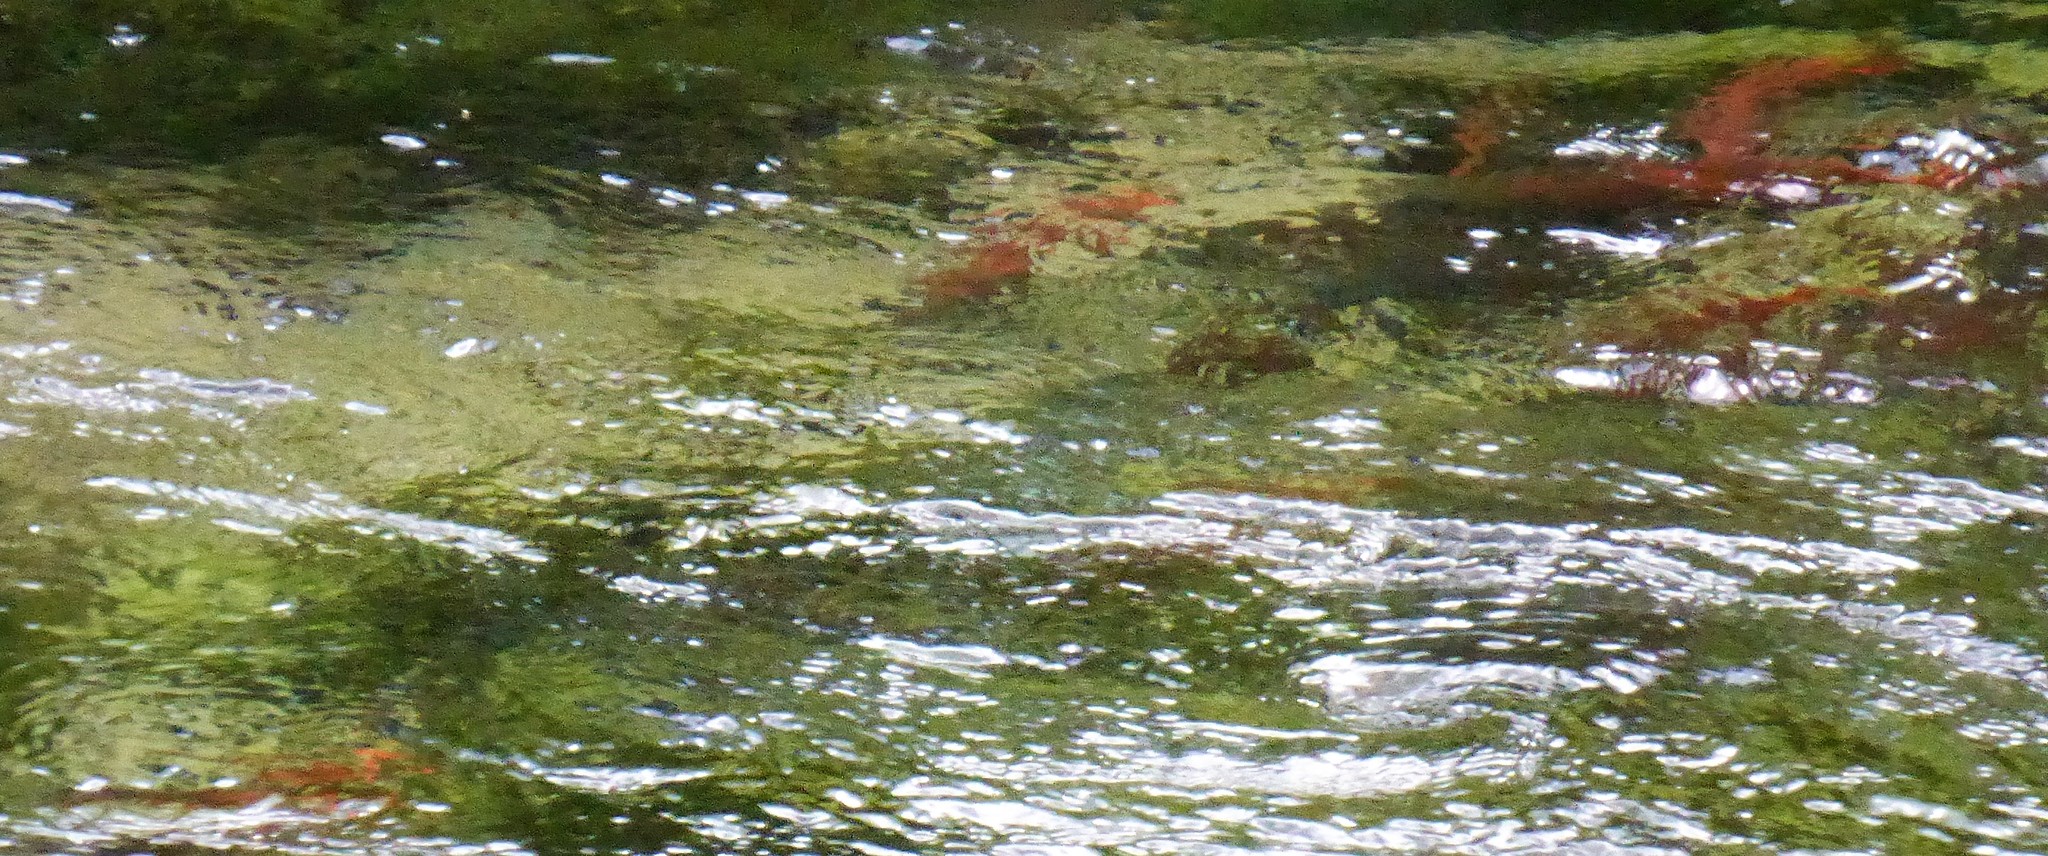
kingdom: Animalia
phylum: Chordata
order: Salmoniformes
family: Salmonidae
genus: Oncorhynchus
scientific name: Oncorhynchus nerka
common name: Sockeye salmon
